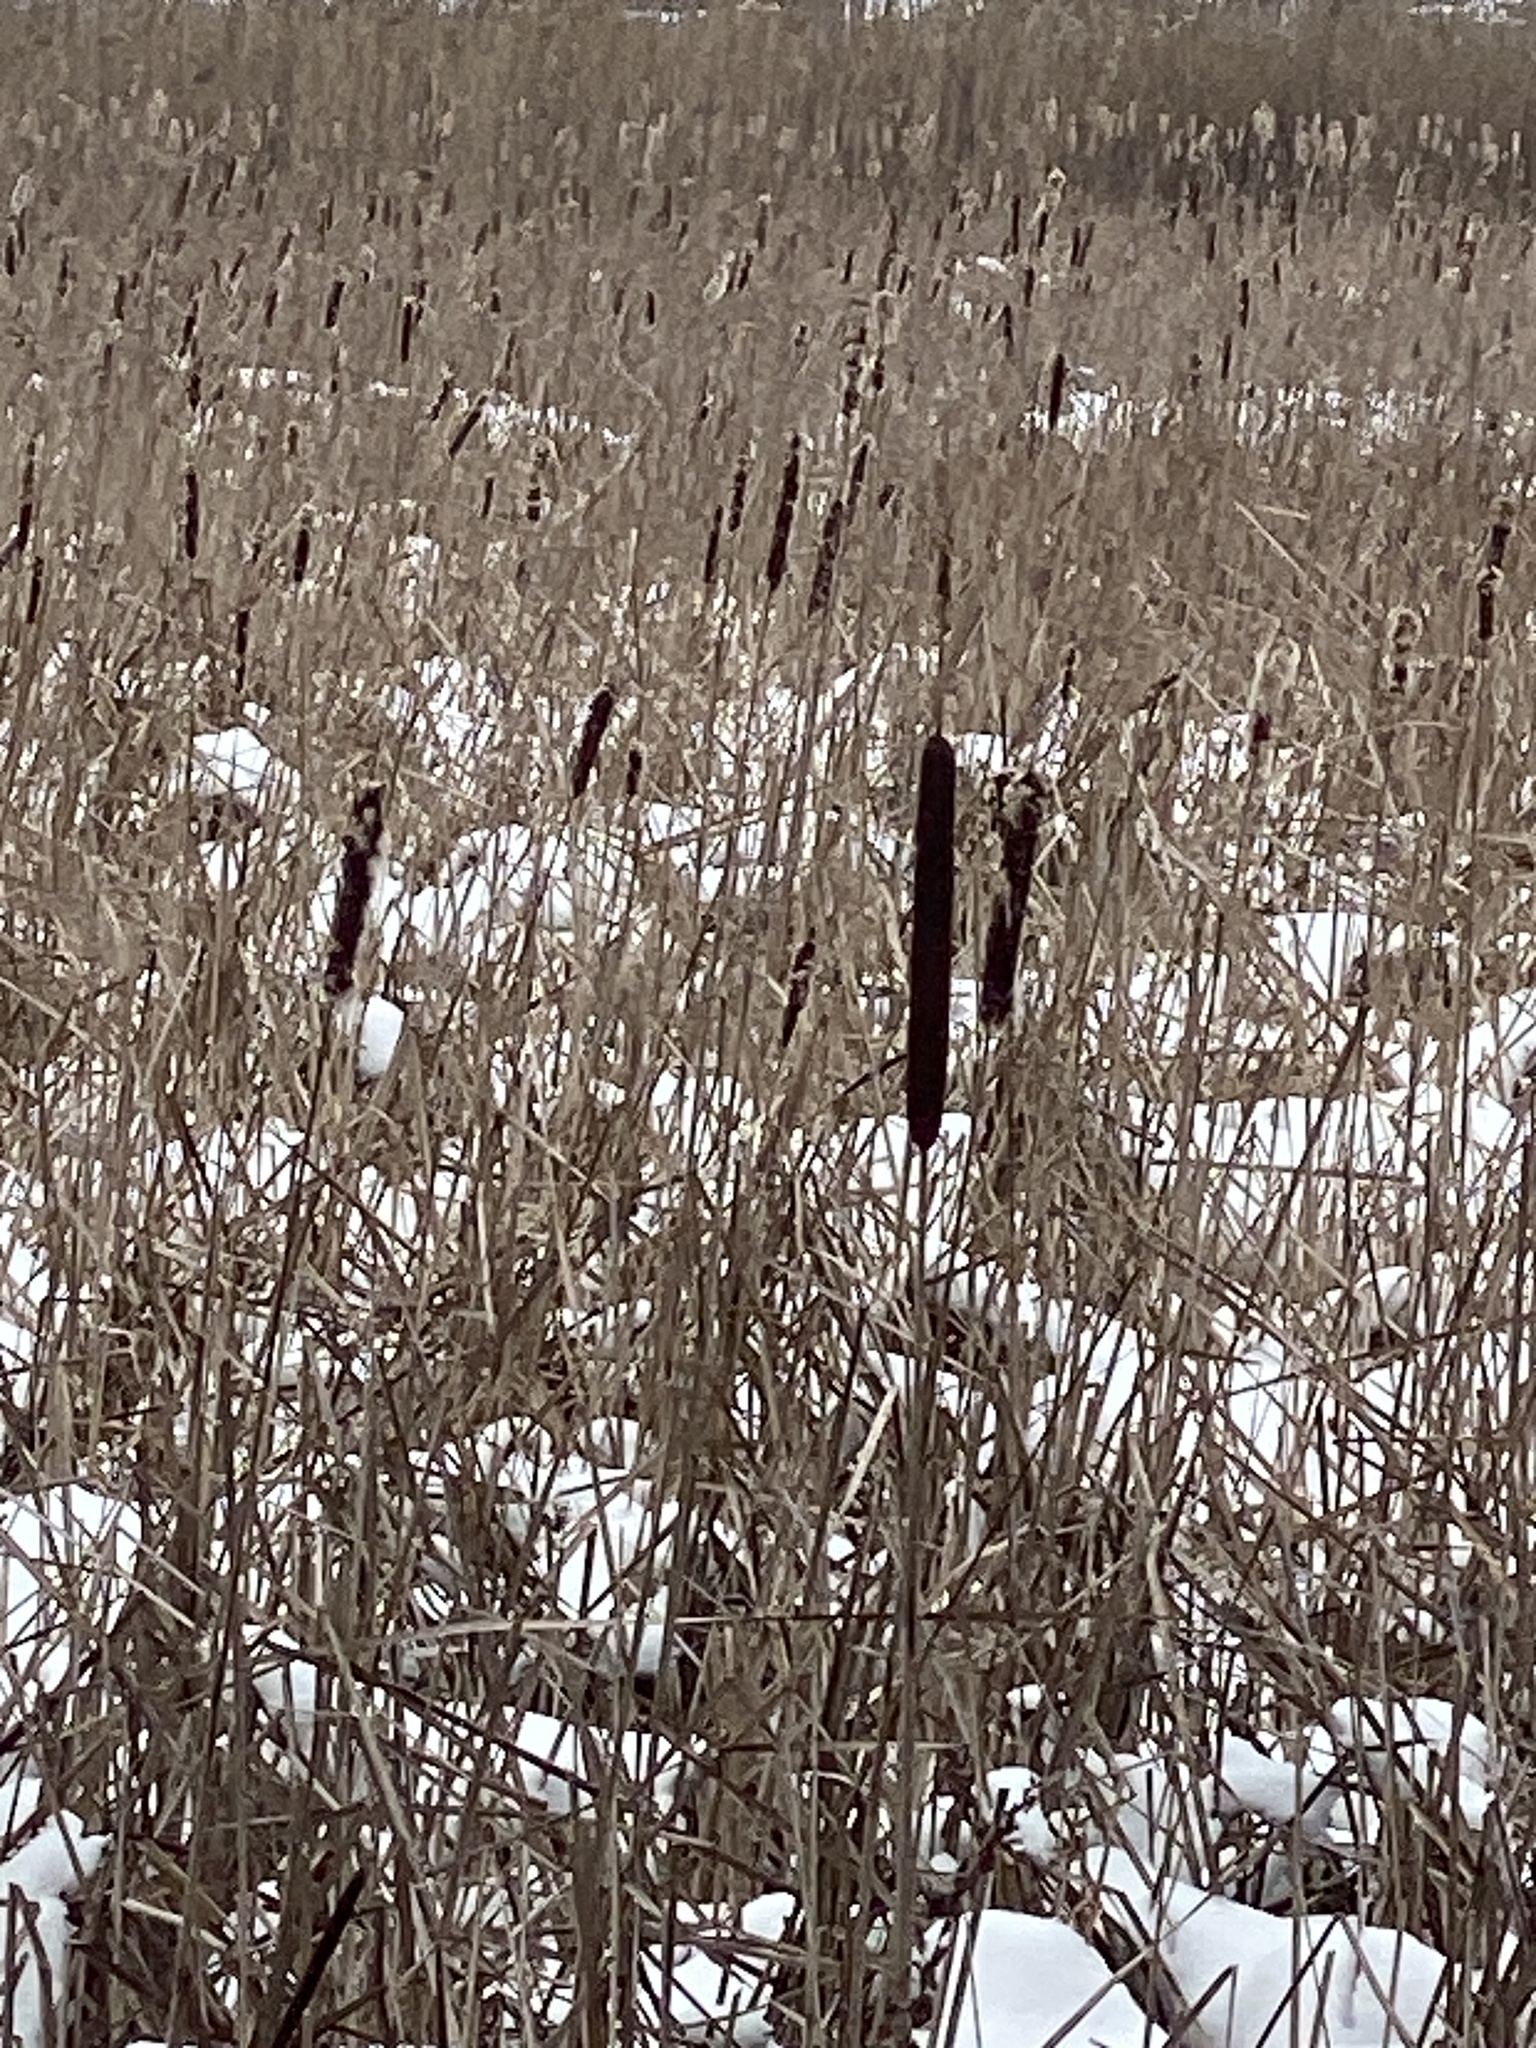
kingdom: Plantae
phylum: Tracheophyta
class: Liliopsida
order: Poales
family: Typhaceae
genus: Typha
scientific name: Typha angustifolia
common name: Lesser bulrush
